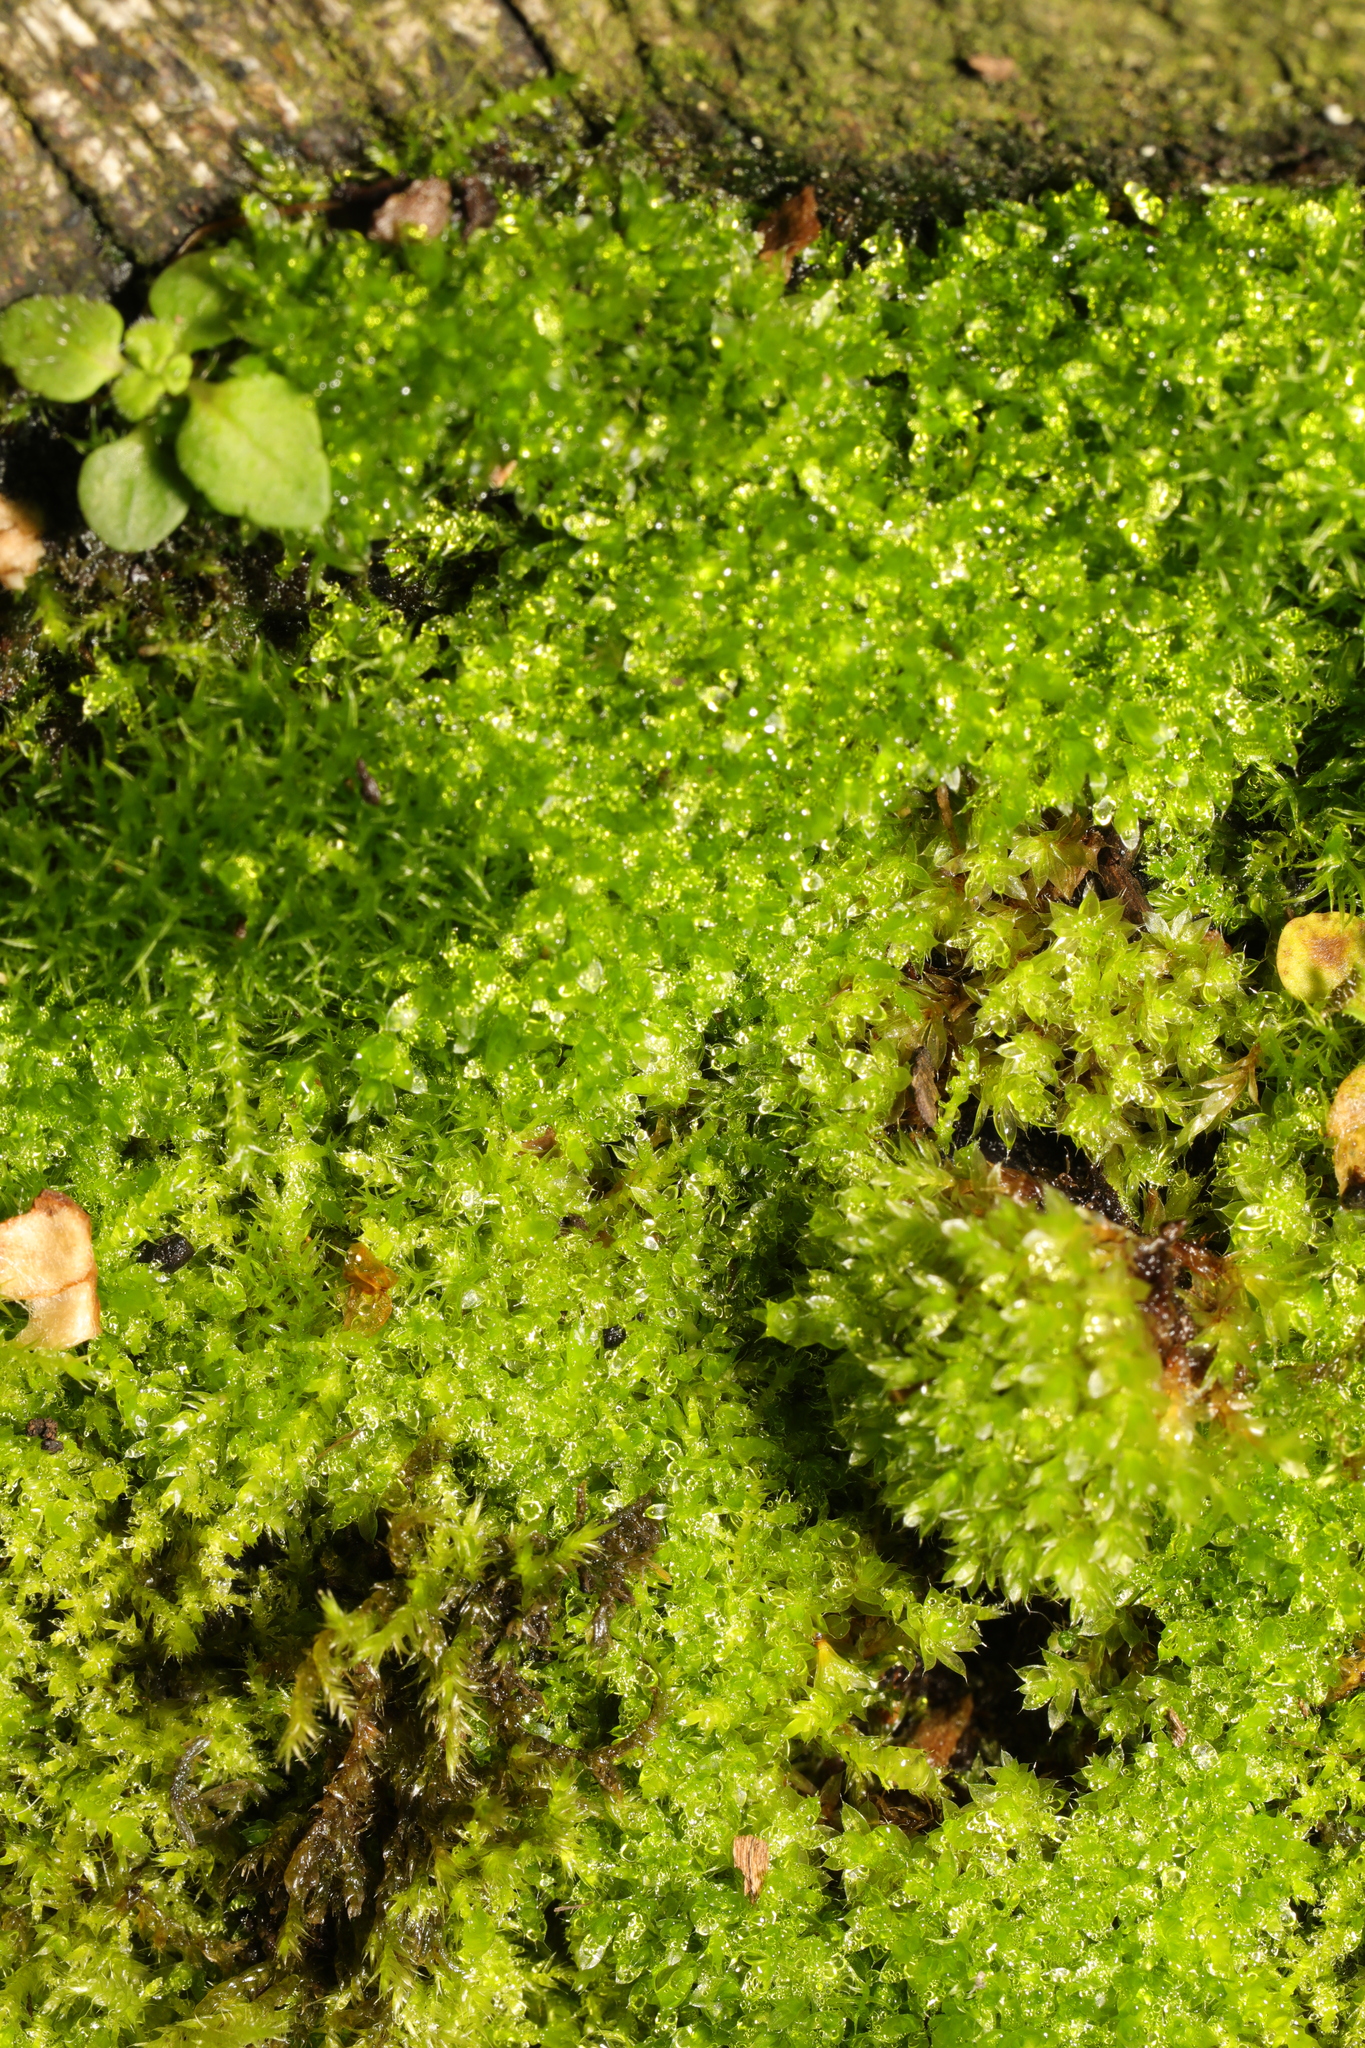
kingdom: Plantae
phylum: Bryophyta
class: Bryopsida
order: Bryales
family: Bryaceae
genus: Rosulabryum
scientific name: Rosulabryum capillare
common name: Capillary thread-moss
